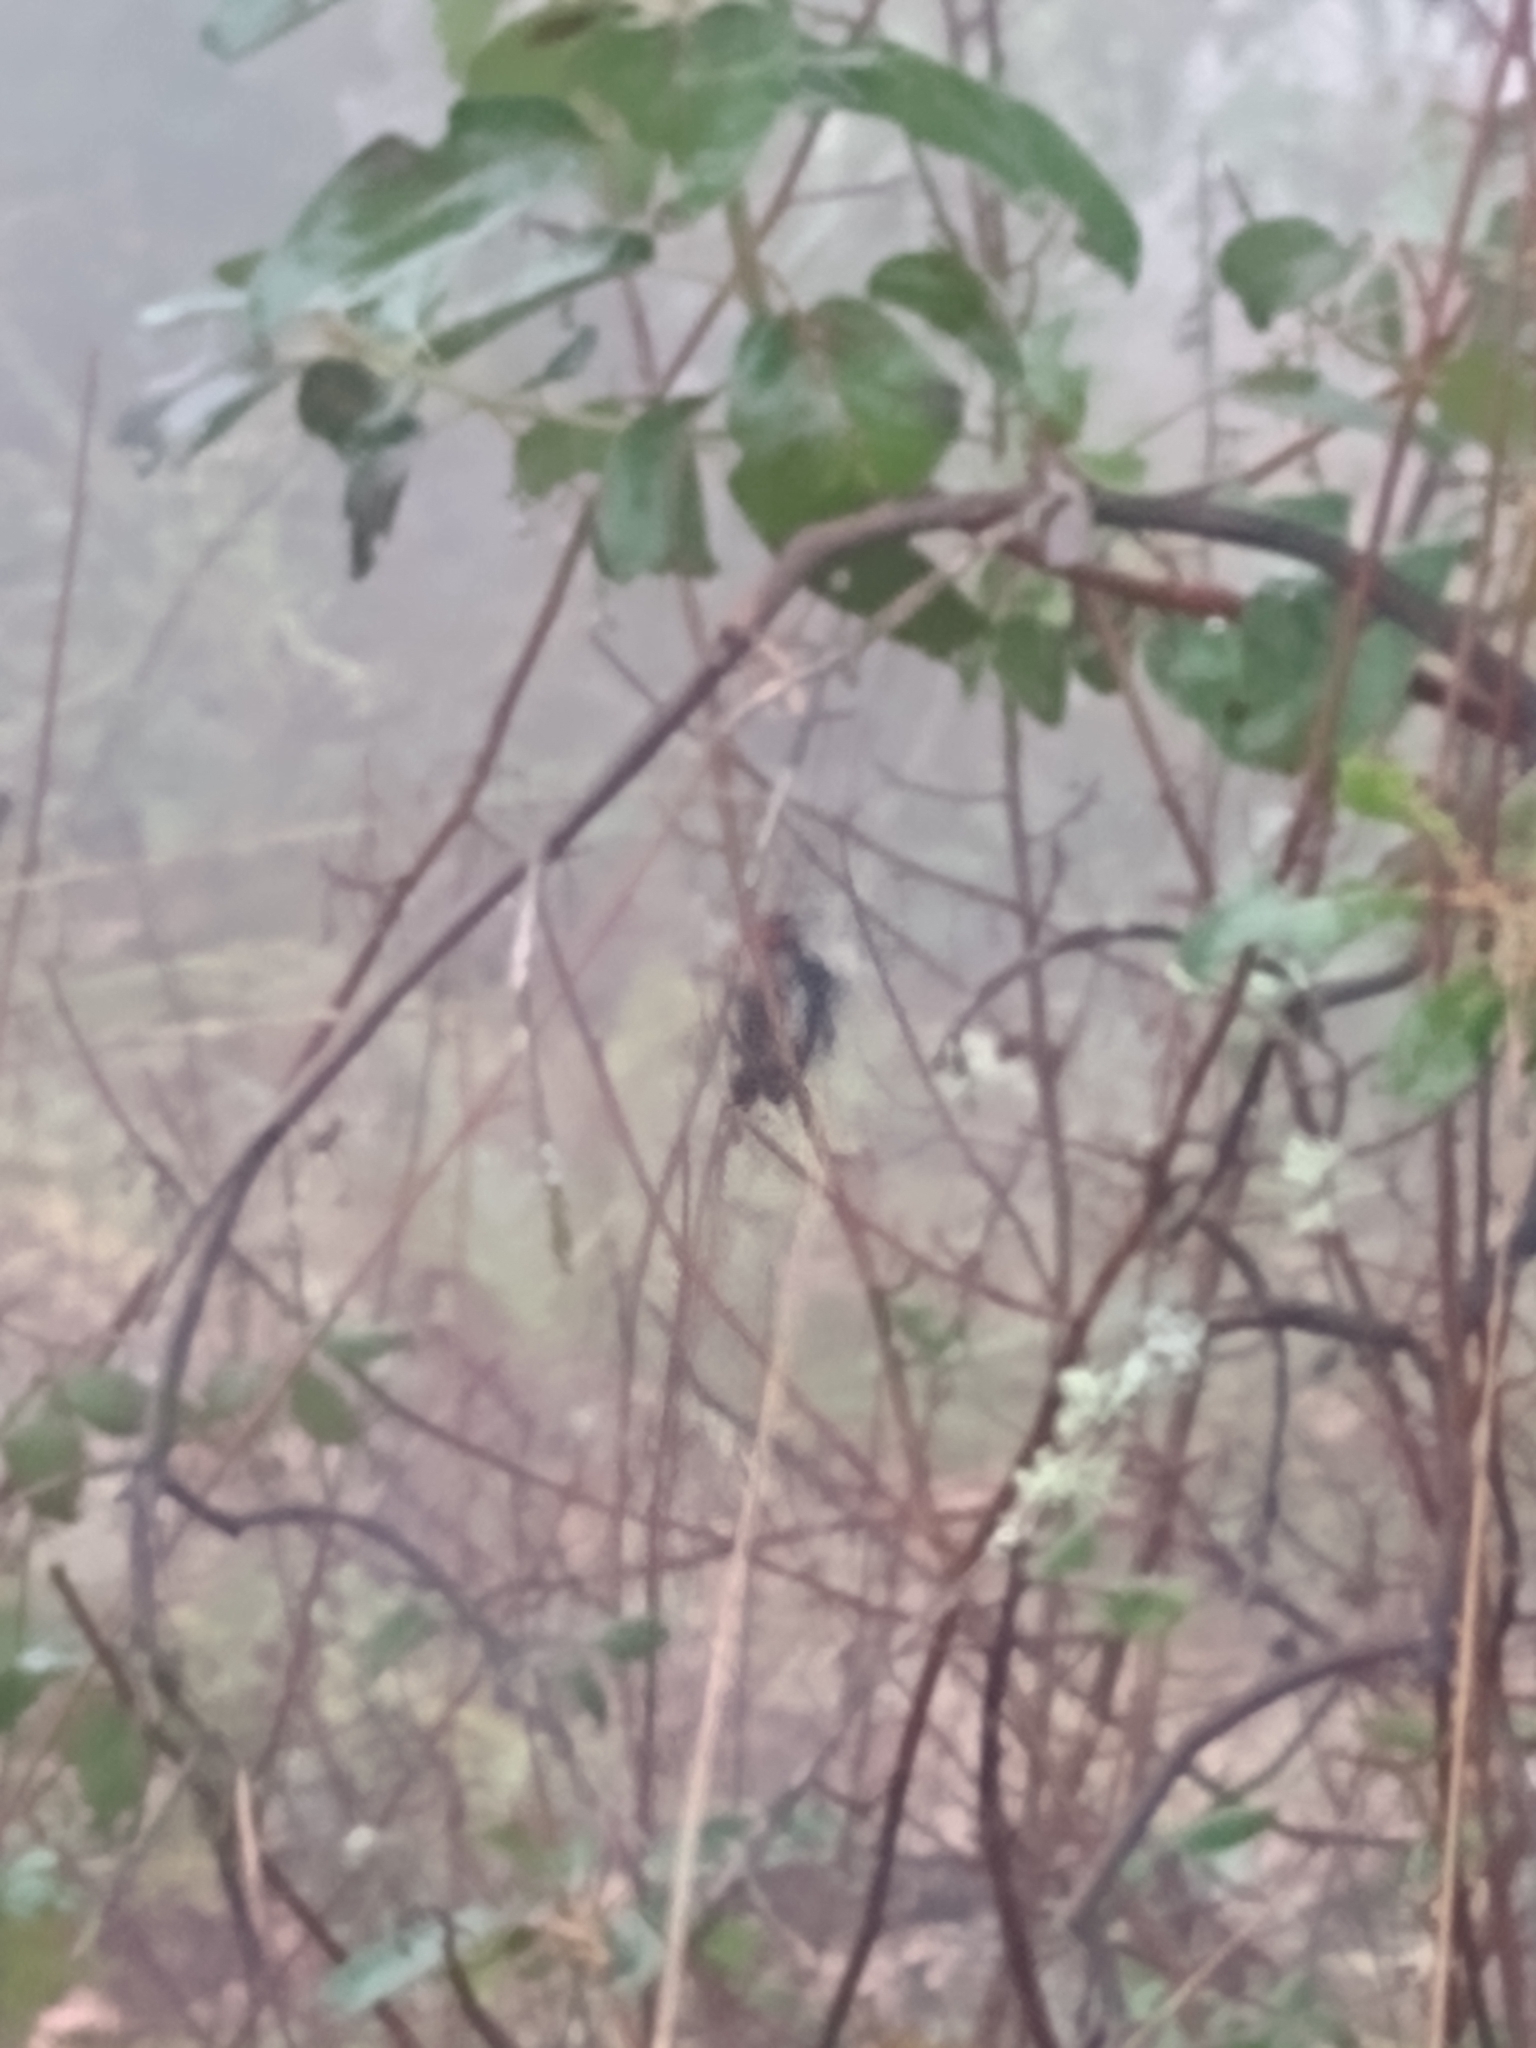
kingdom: Animalia
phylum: Chordata
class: Aves
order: Piciformes
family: Picidae
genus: Dryobates
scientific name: Dryobates pubescens
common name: Downy woodpecker
